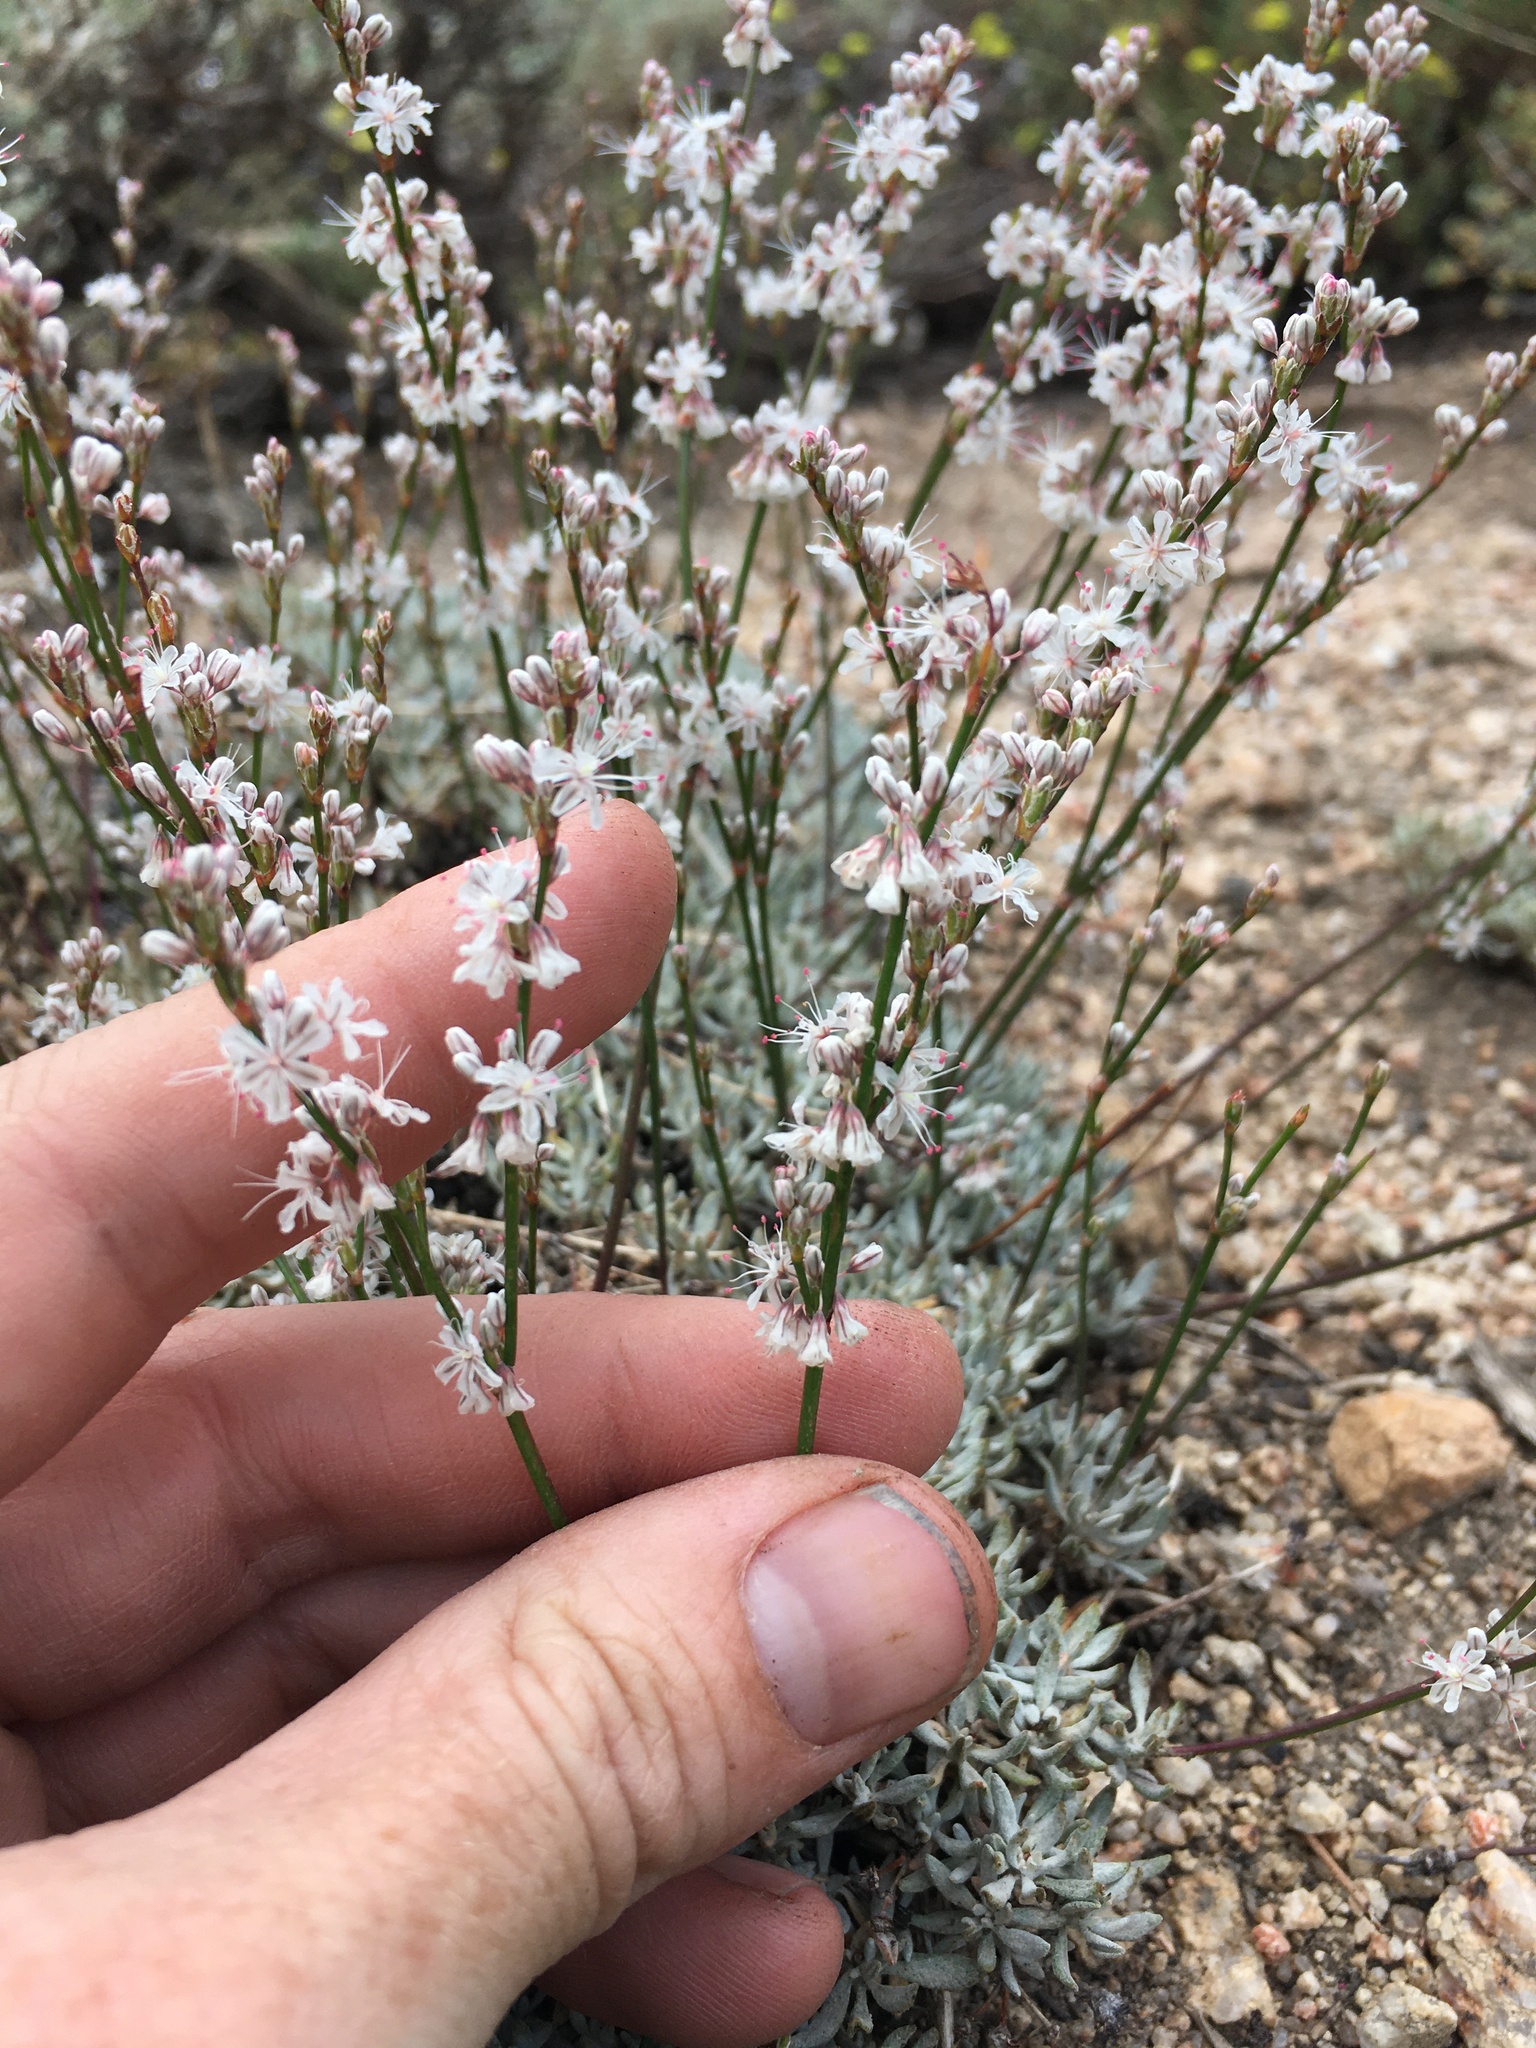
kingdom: Plantae
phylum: Tracheophyta
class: Magnoliopsida
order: Caryophyllales
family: Polygonaceae
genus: Eriogonum
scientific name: Eriogonum wrightii
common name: Bastard-sage
